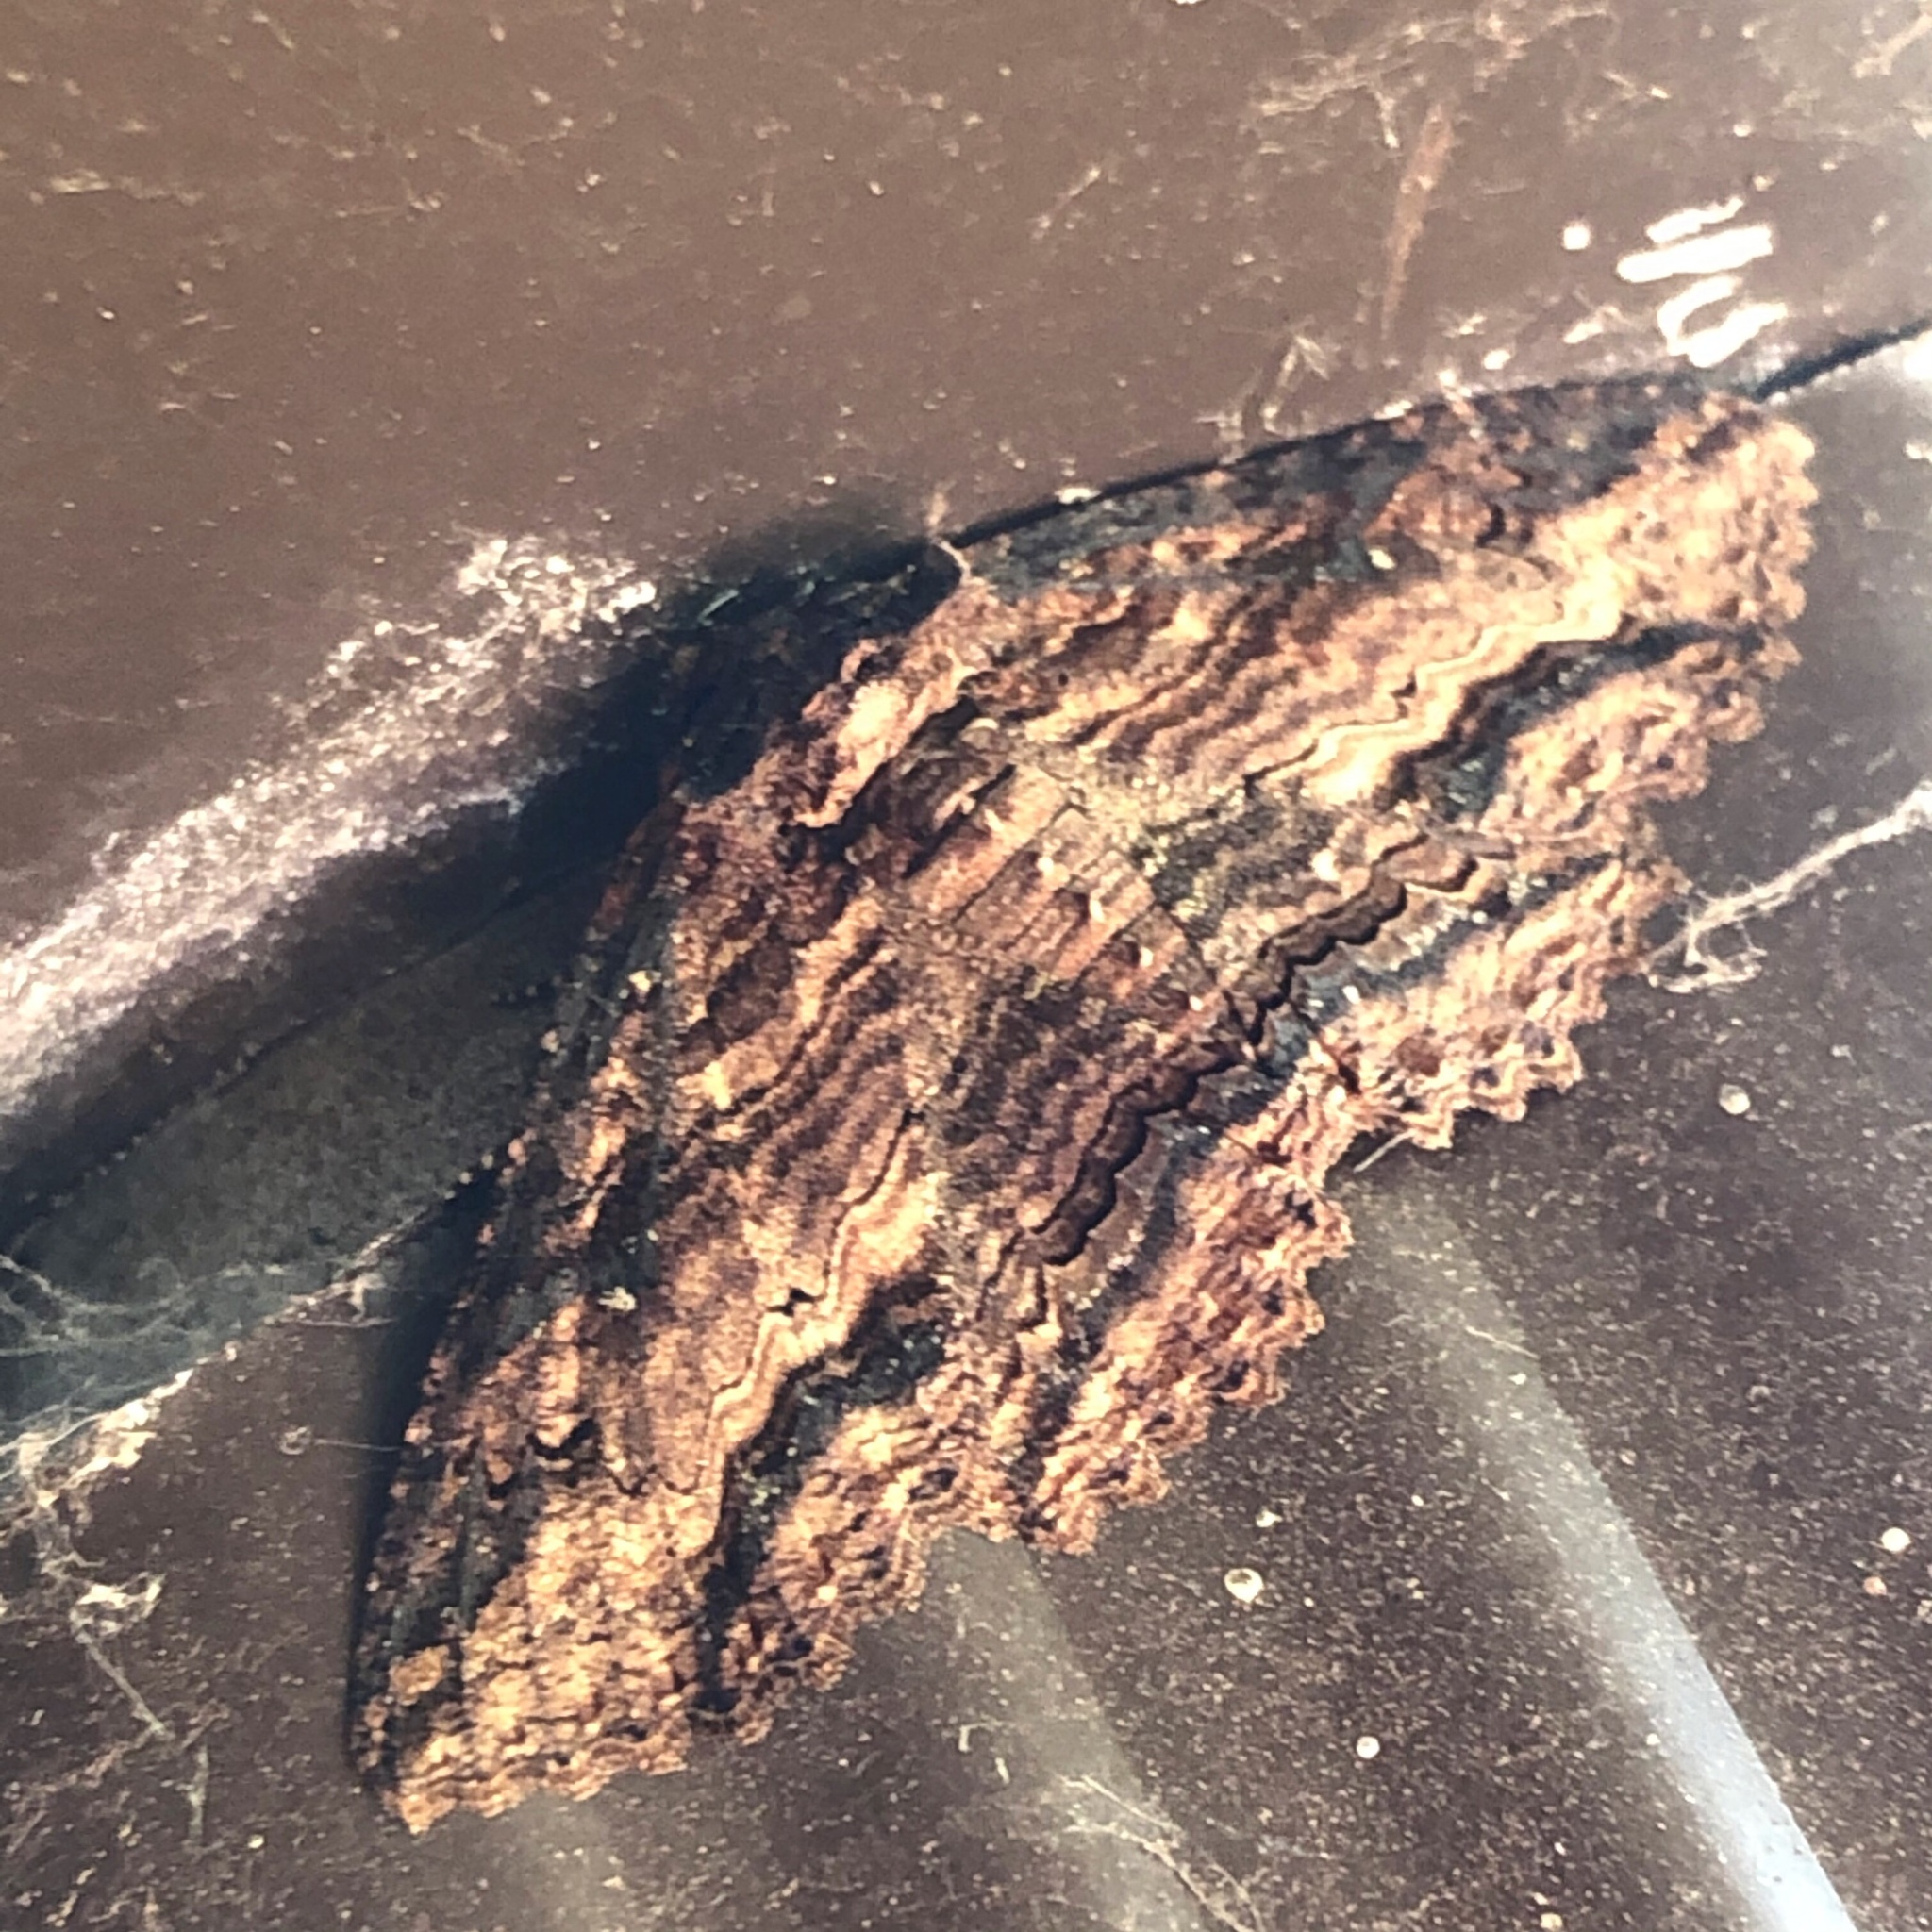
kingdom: Animalia
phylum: Arthropoda
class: Insecta
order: Lepidoptera
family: Erebidae
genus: Zale
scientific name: Zale lunata
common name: Lunate zale moth
